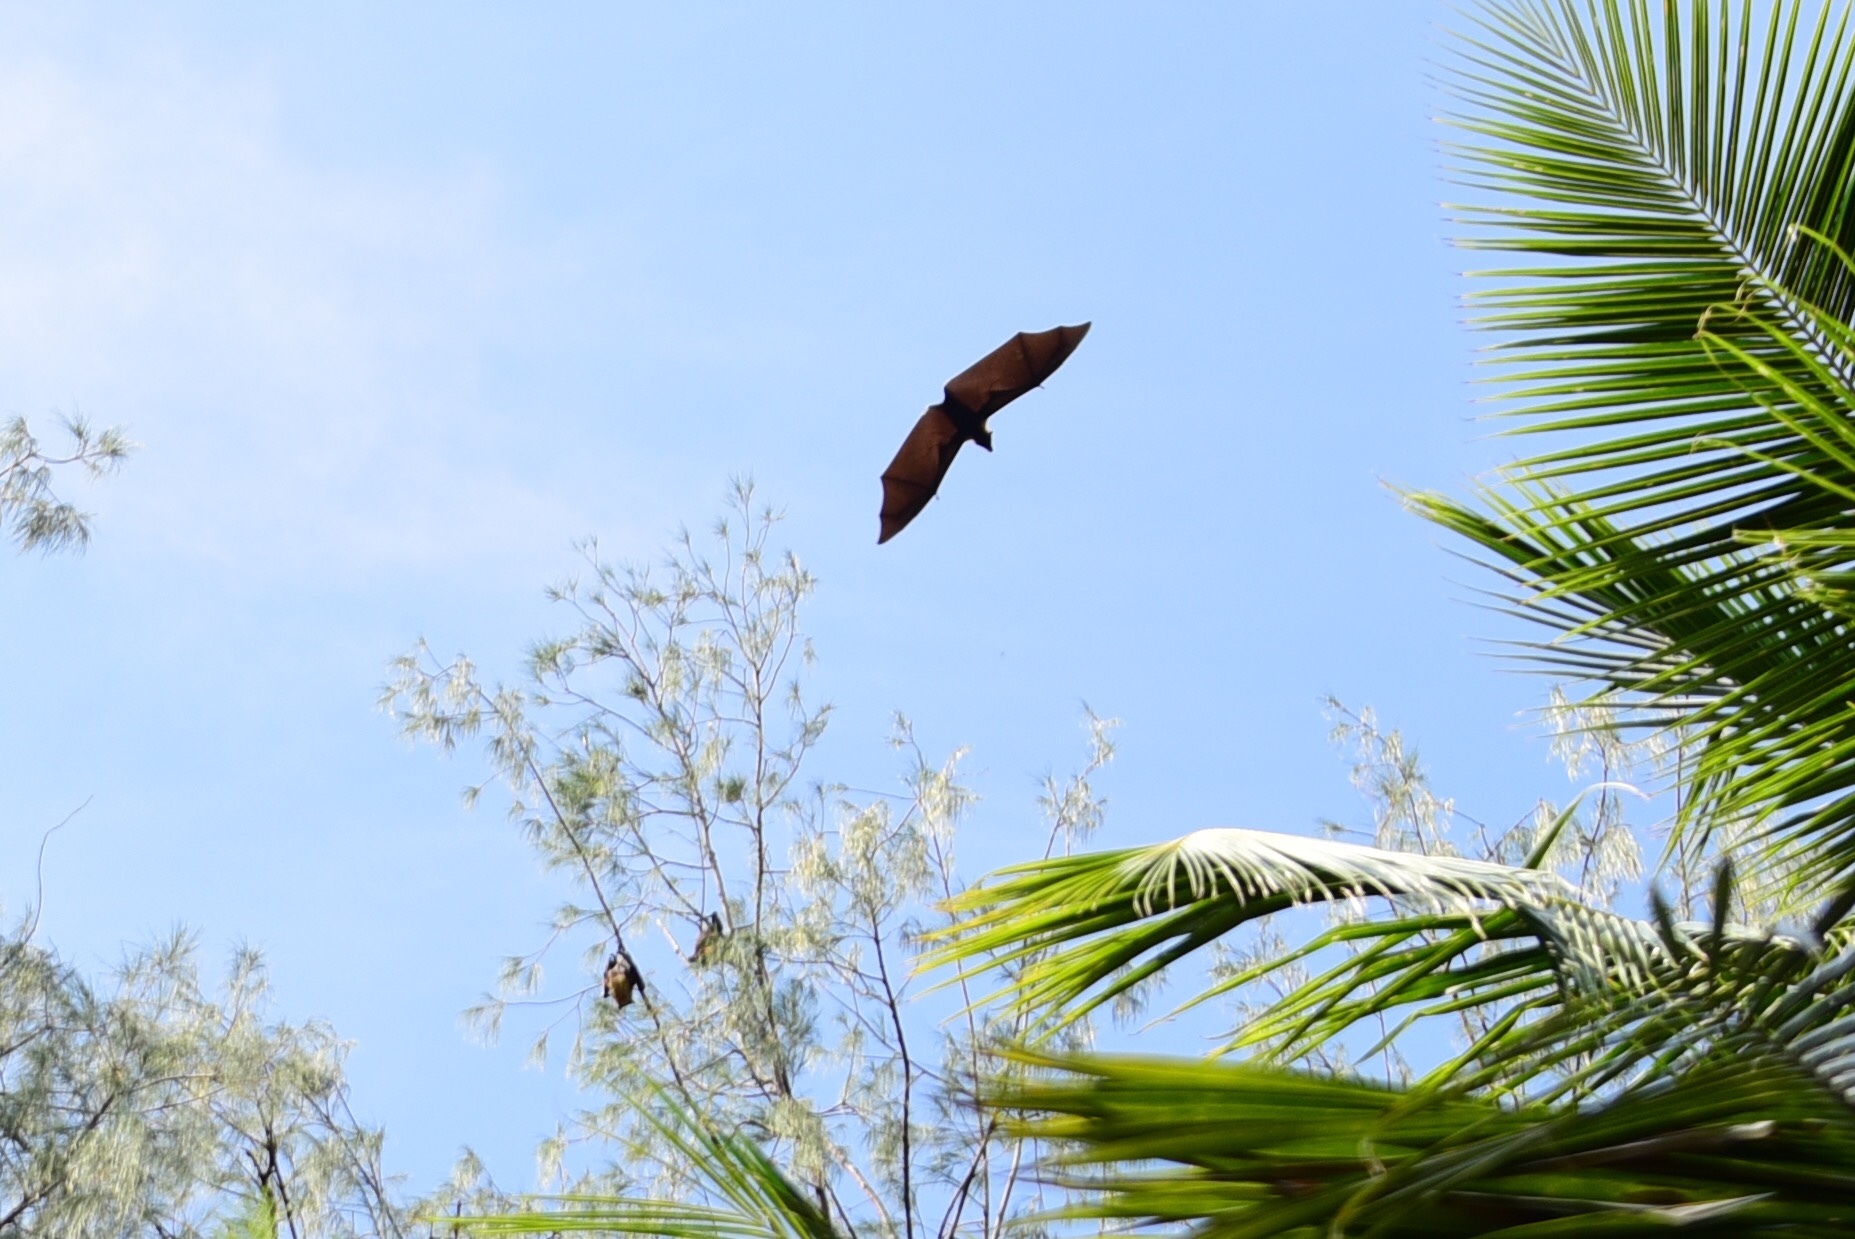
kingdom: Animalia
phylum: Chordata
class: Mammalia
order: Chiroptera
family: Pteropodidae
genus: Pteropus
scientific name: Pteropus tonganus
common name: Pacific flying fox
